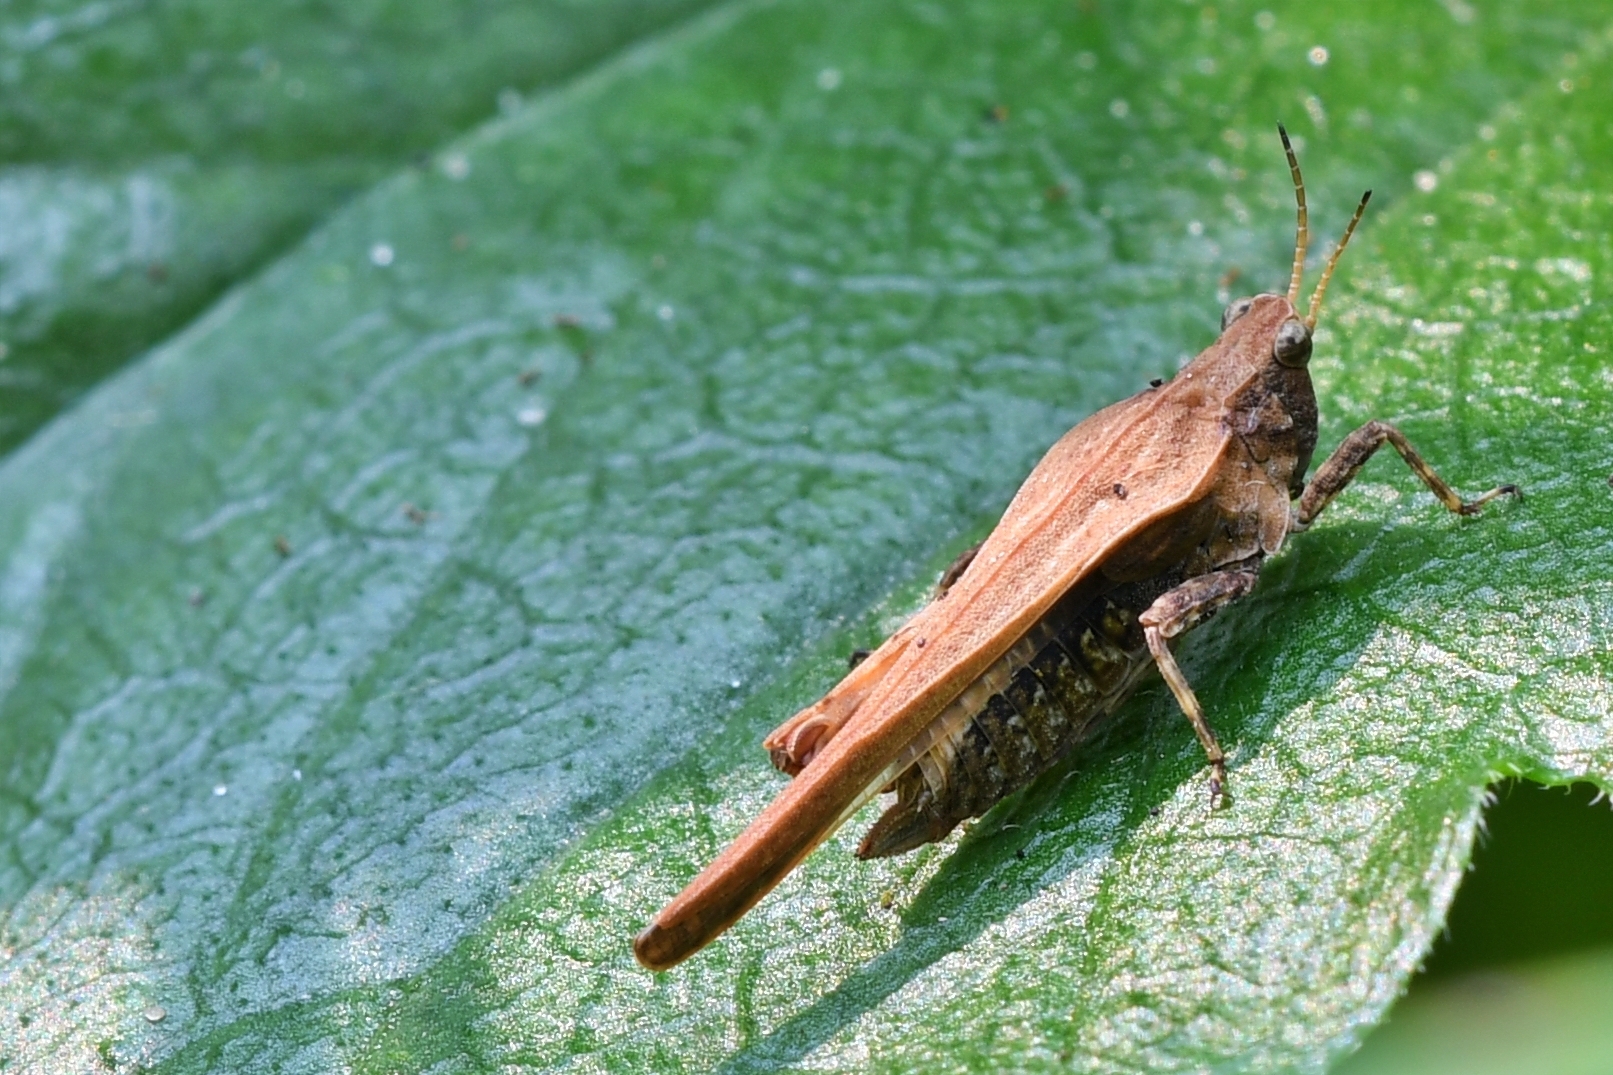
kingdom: Animalia
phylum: Arthropoda
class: Insecta
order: Orthoptera
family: Tetrigidae
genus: Tetrix
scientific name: Tetrix subulata
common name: Slender ground-hopper
